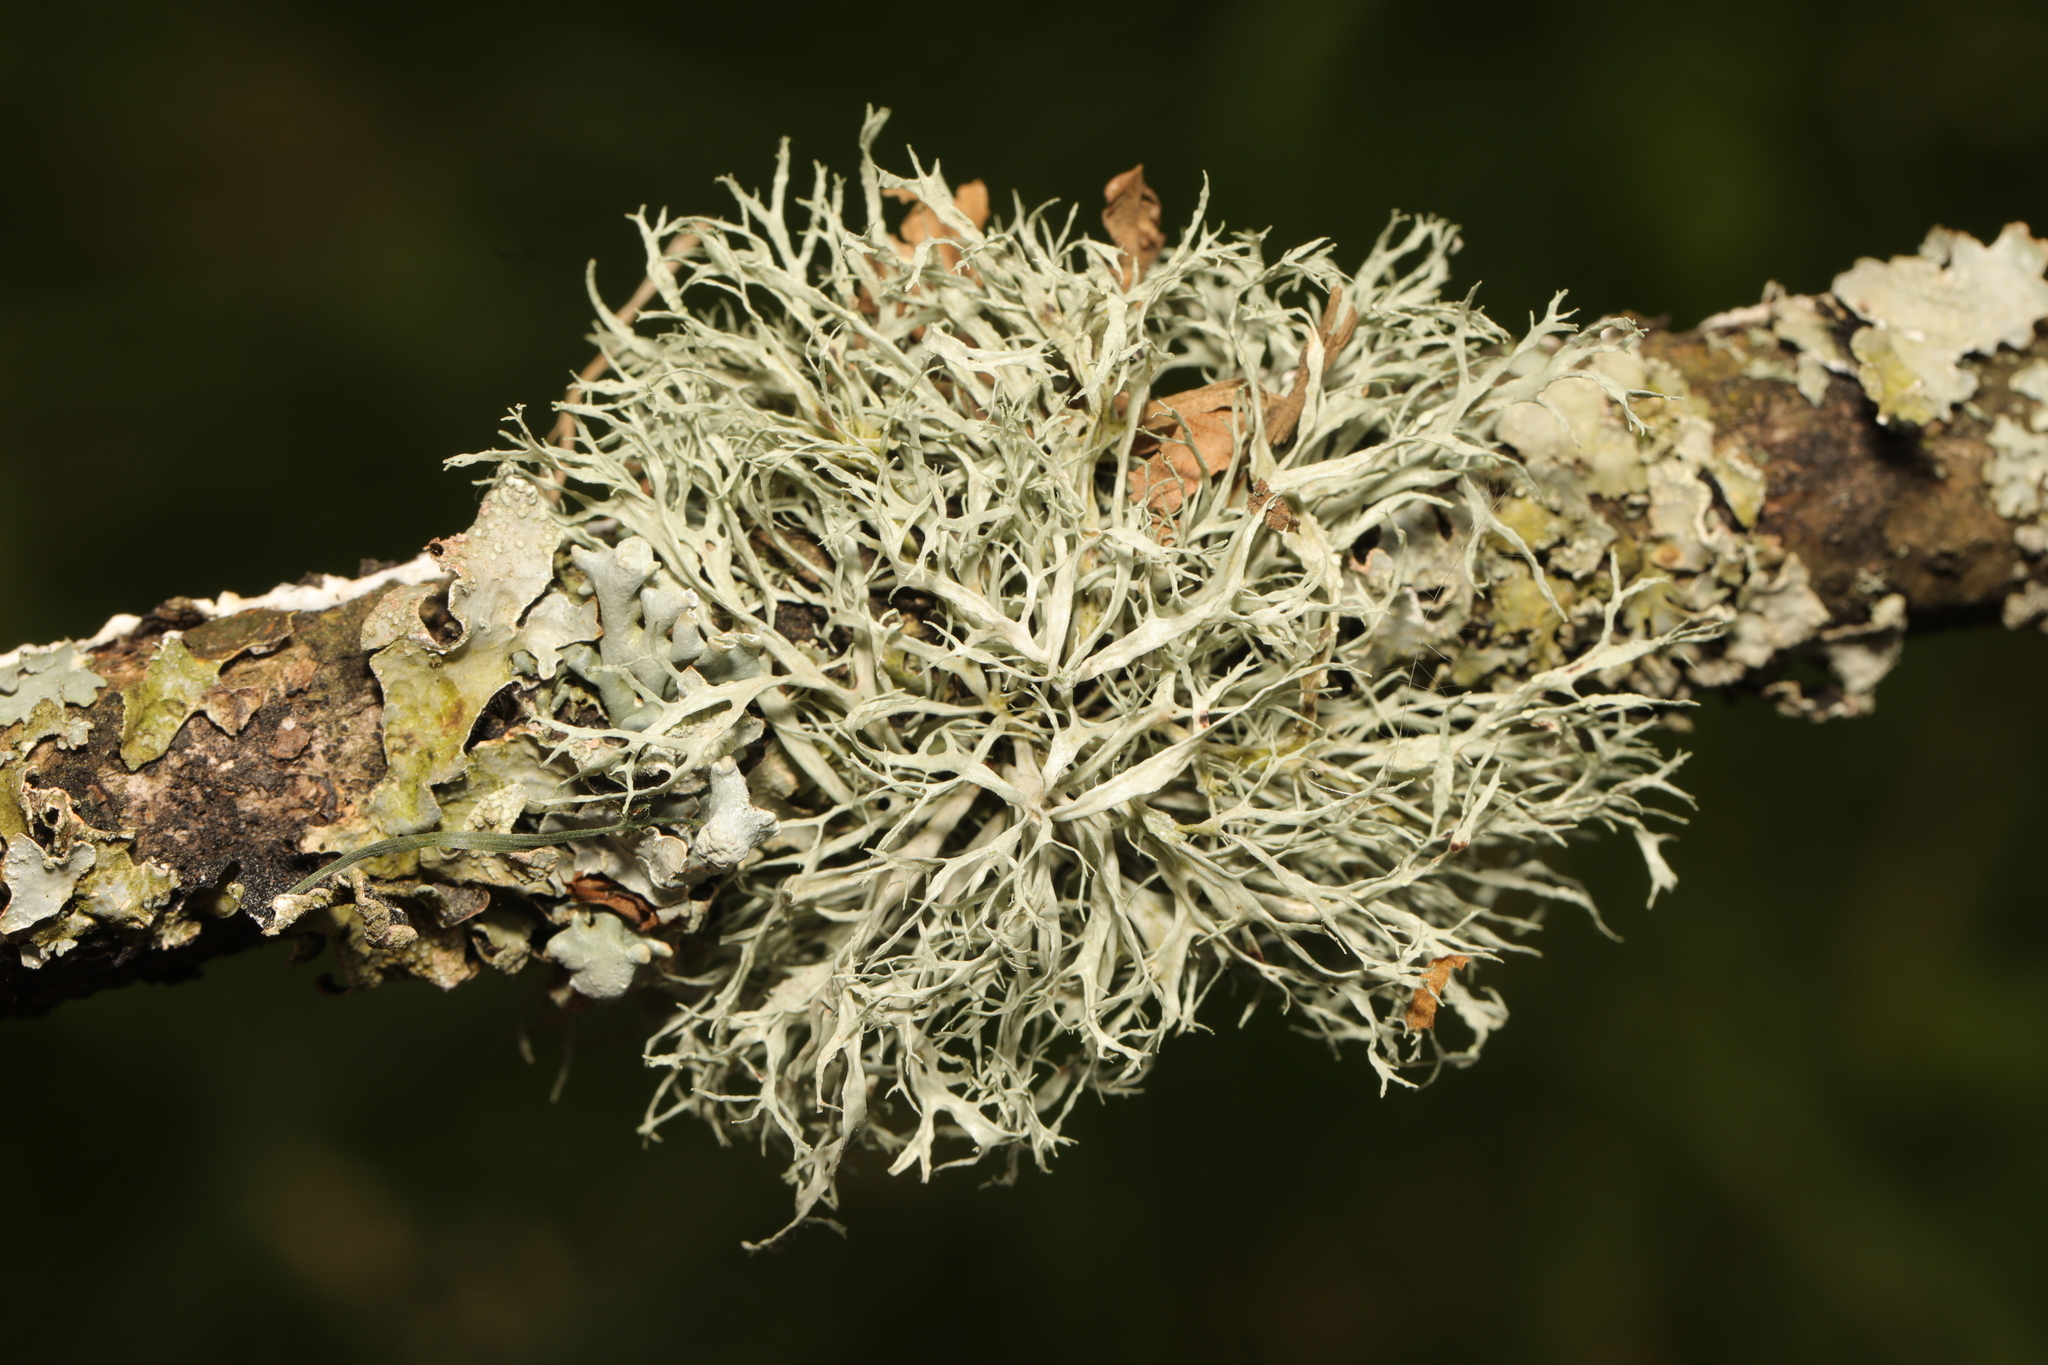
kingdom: Fungi
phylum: Ascomycota
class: Lecanoromycetes
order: Lecanorales
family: Ramalinaceae
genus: Ramalina
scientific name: Ramalina farinacea
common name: Farinose cartilage lichen
